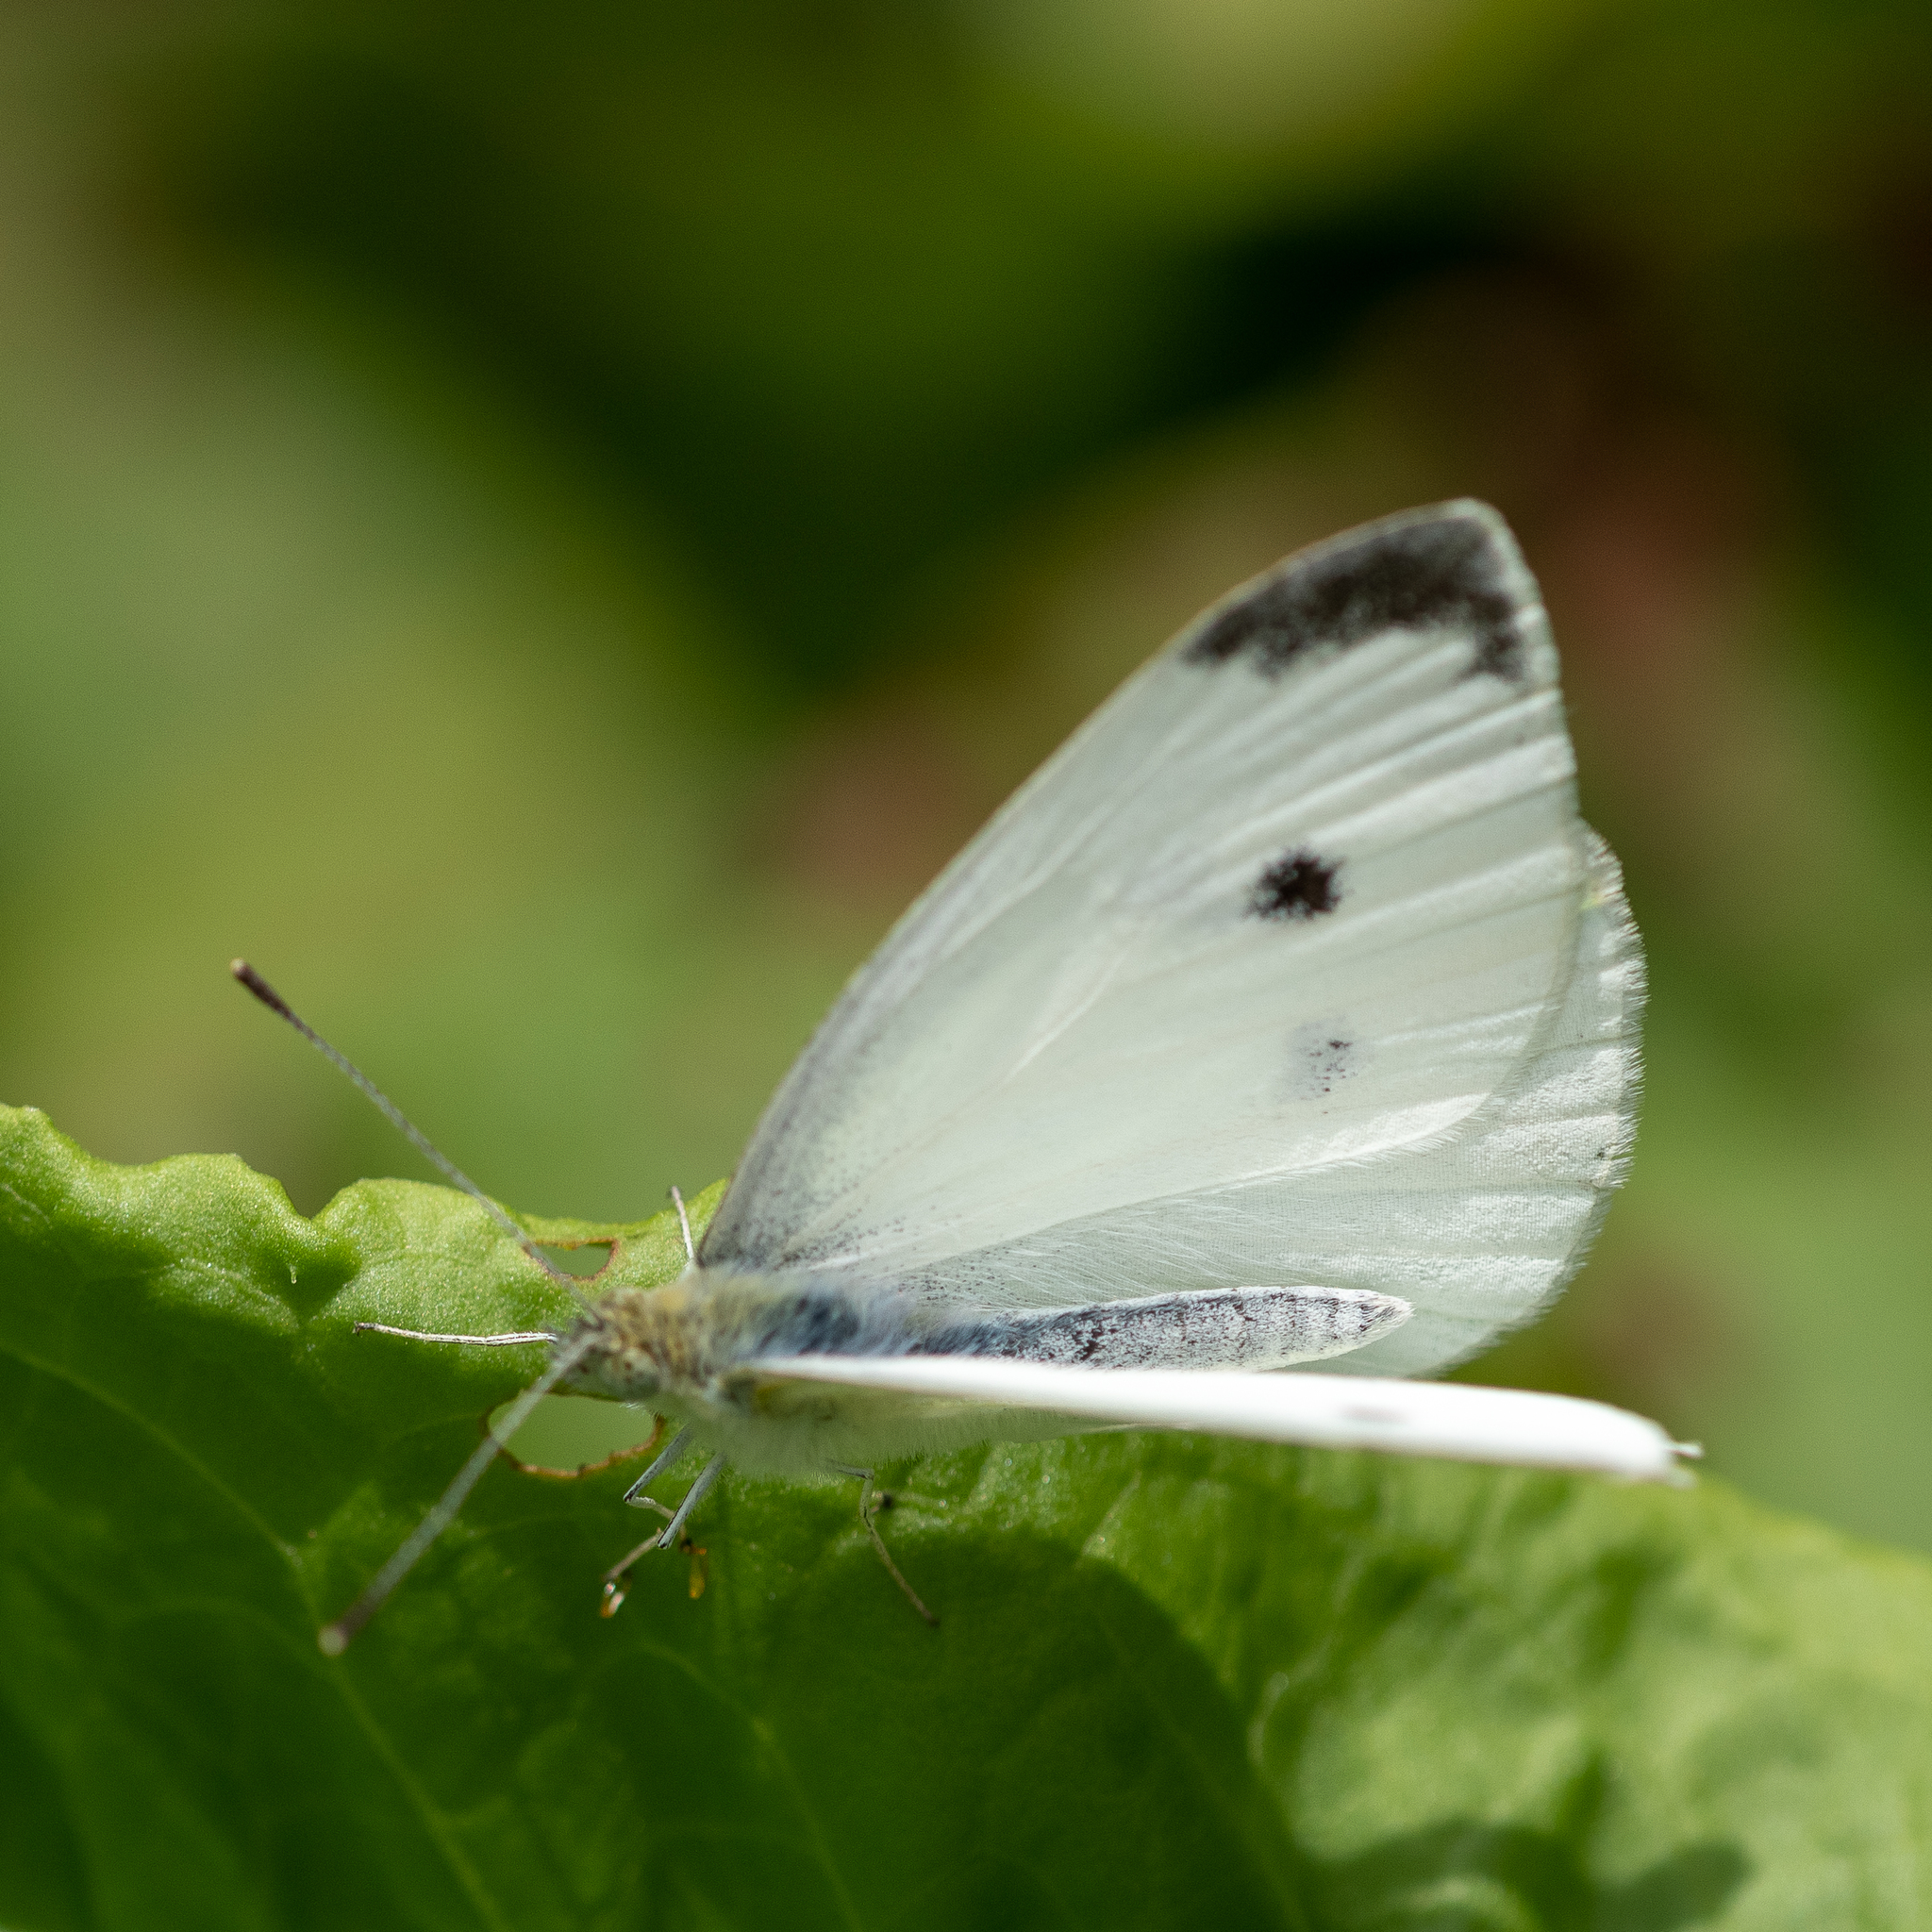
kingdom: Animalia
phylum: Arthropoda
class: Insecta
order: Lepidoptera
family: Pieridae
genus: Pieris
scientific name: Pieris rapae
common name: Small white
